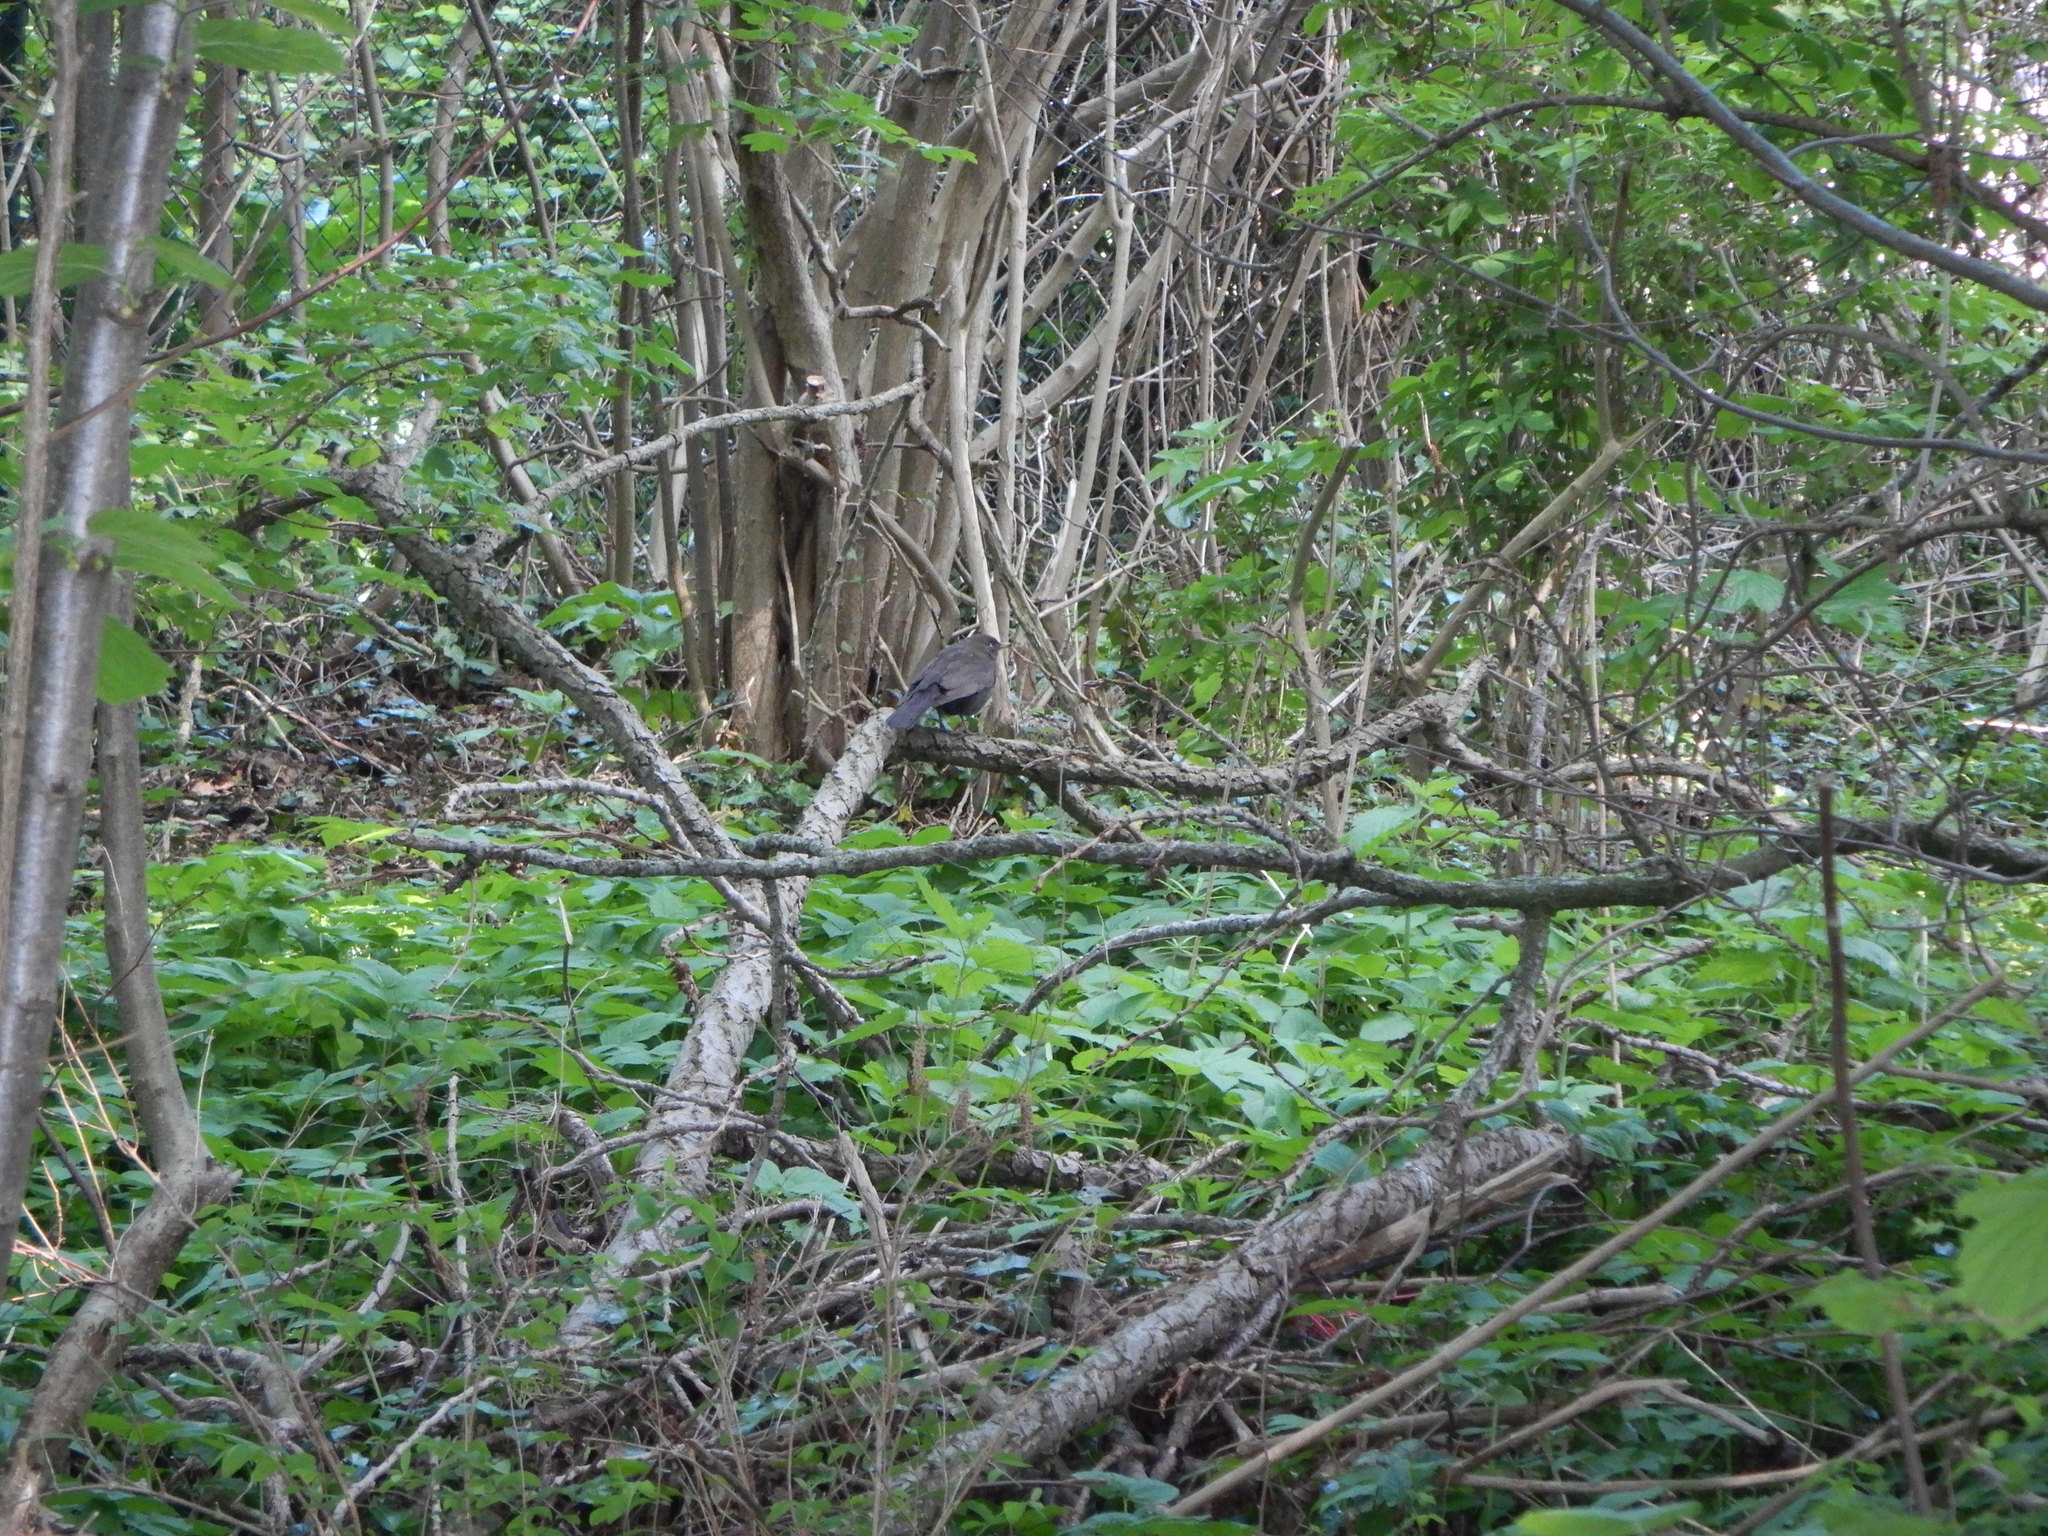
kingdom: Animalia
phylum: Chordata
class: Aves
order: Passeriformes
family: Turdidae
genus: Turdus
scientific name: Turdus merula
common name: Common blackbird
